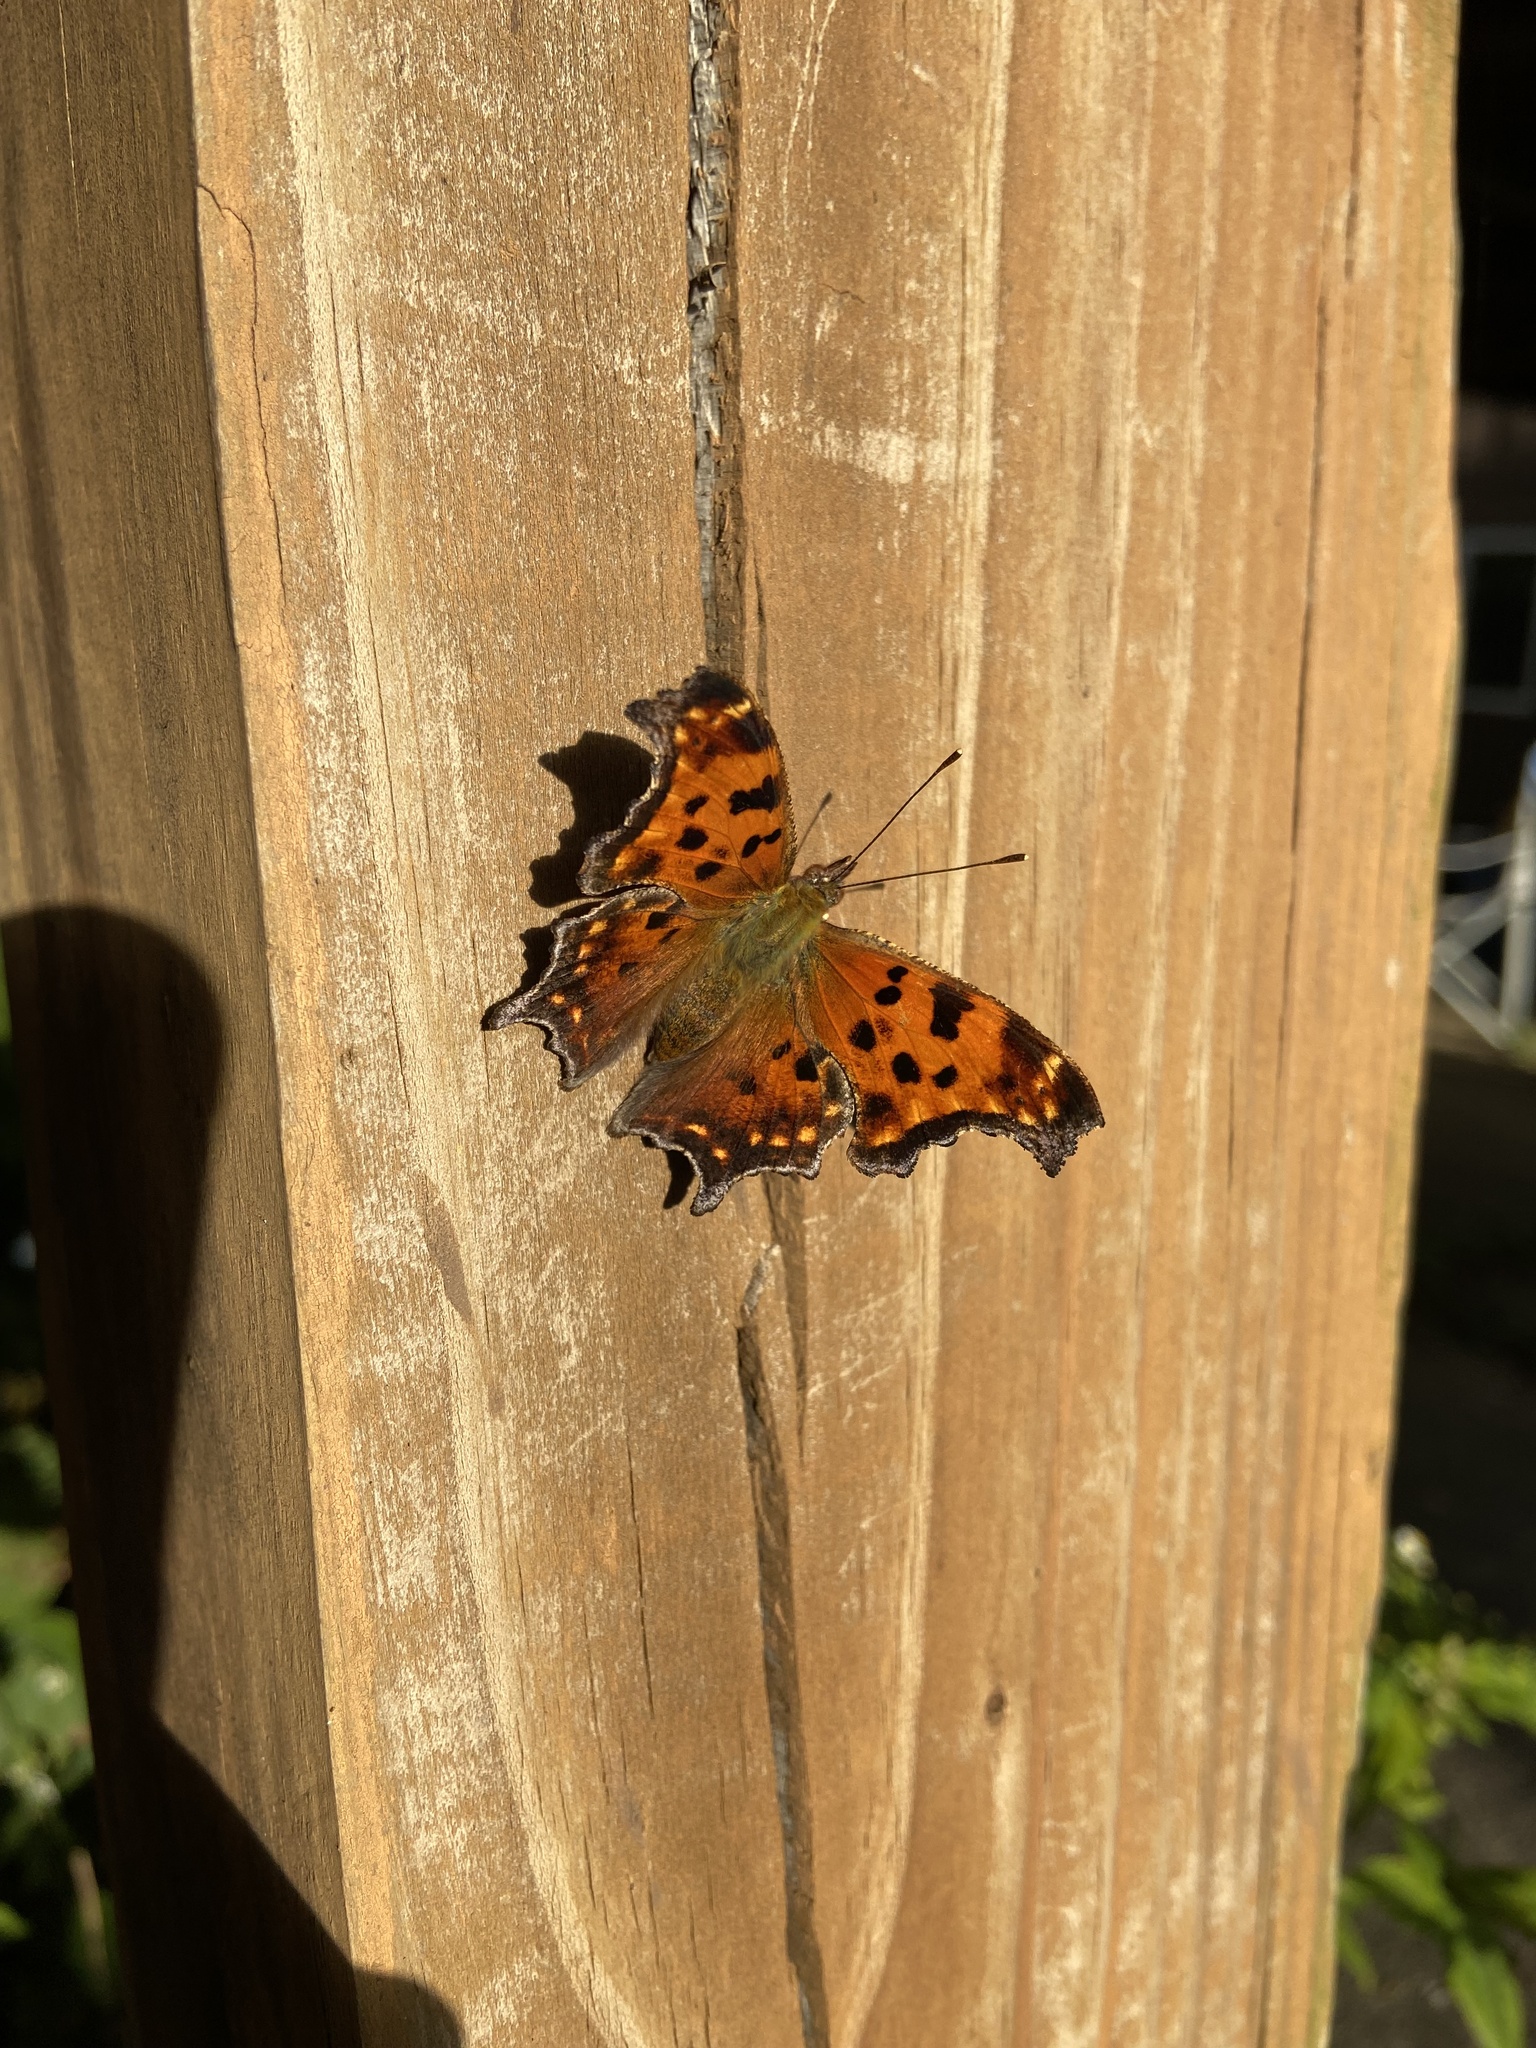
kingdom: Animalia
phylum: Arthropoda
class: Insecta
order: Lepidoptera
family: Nymphalidae
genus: Polygonia
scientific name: Polygonia comma
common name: Eastern comma
